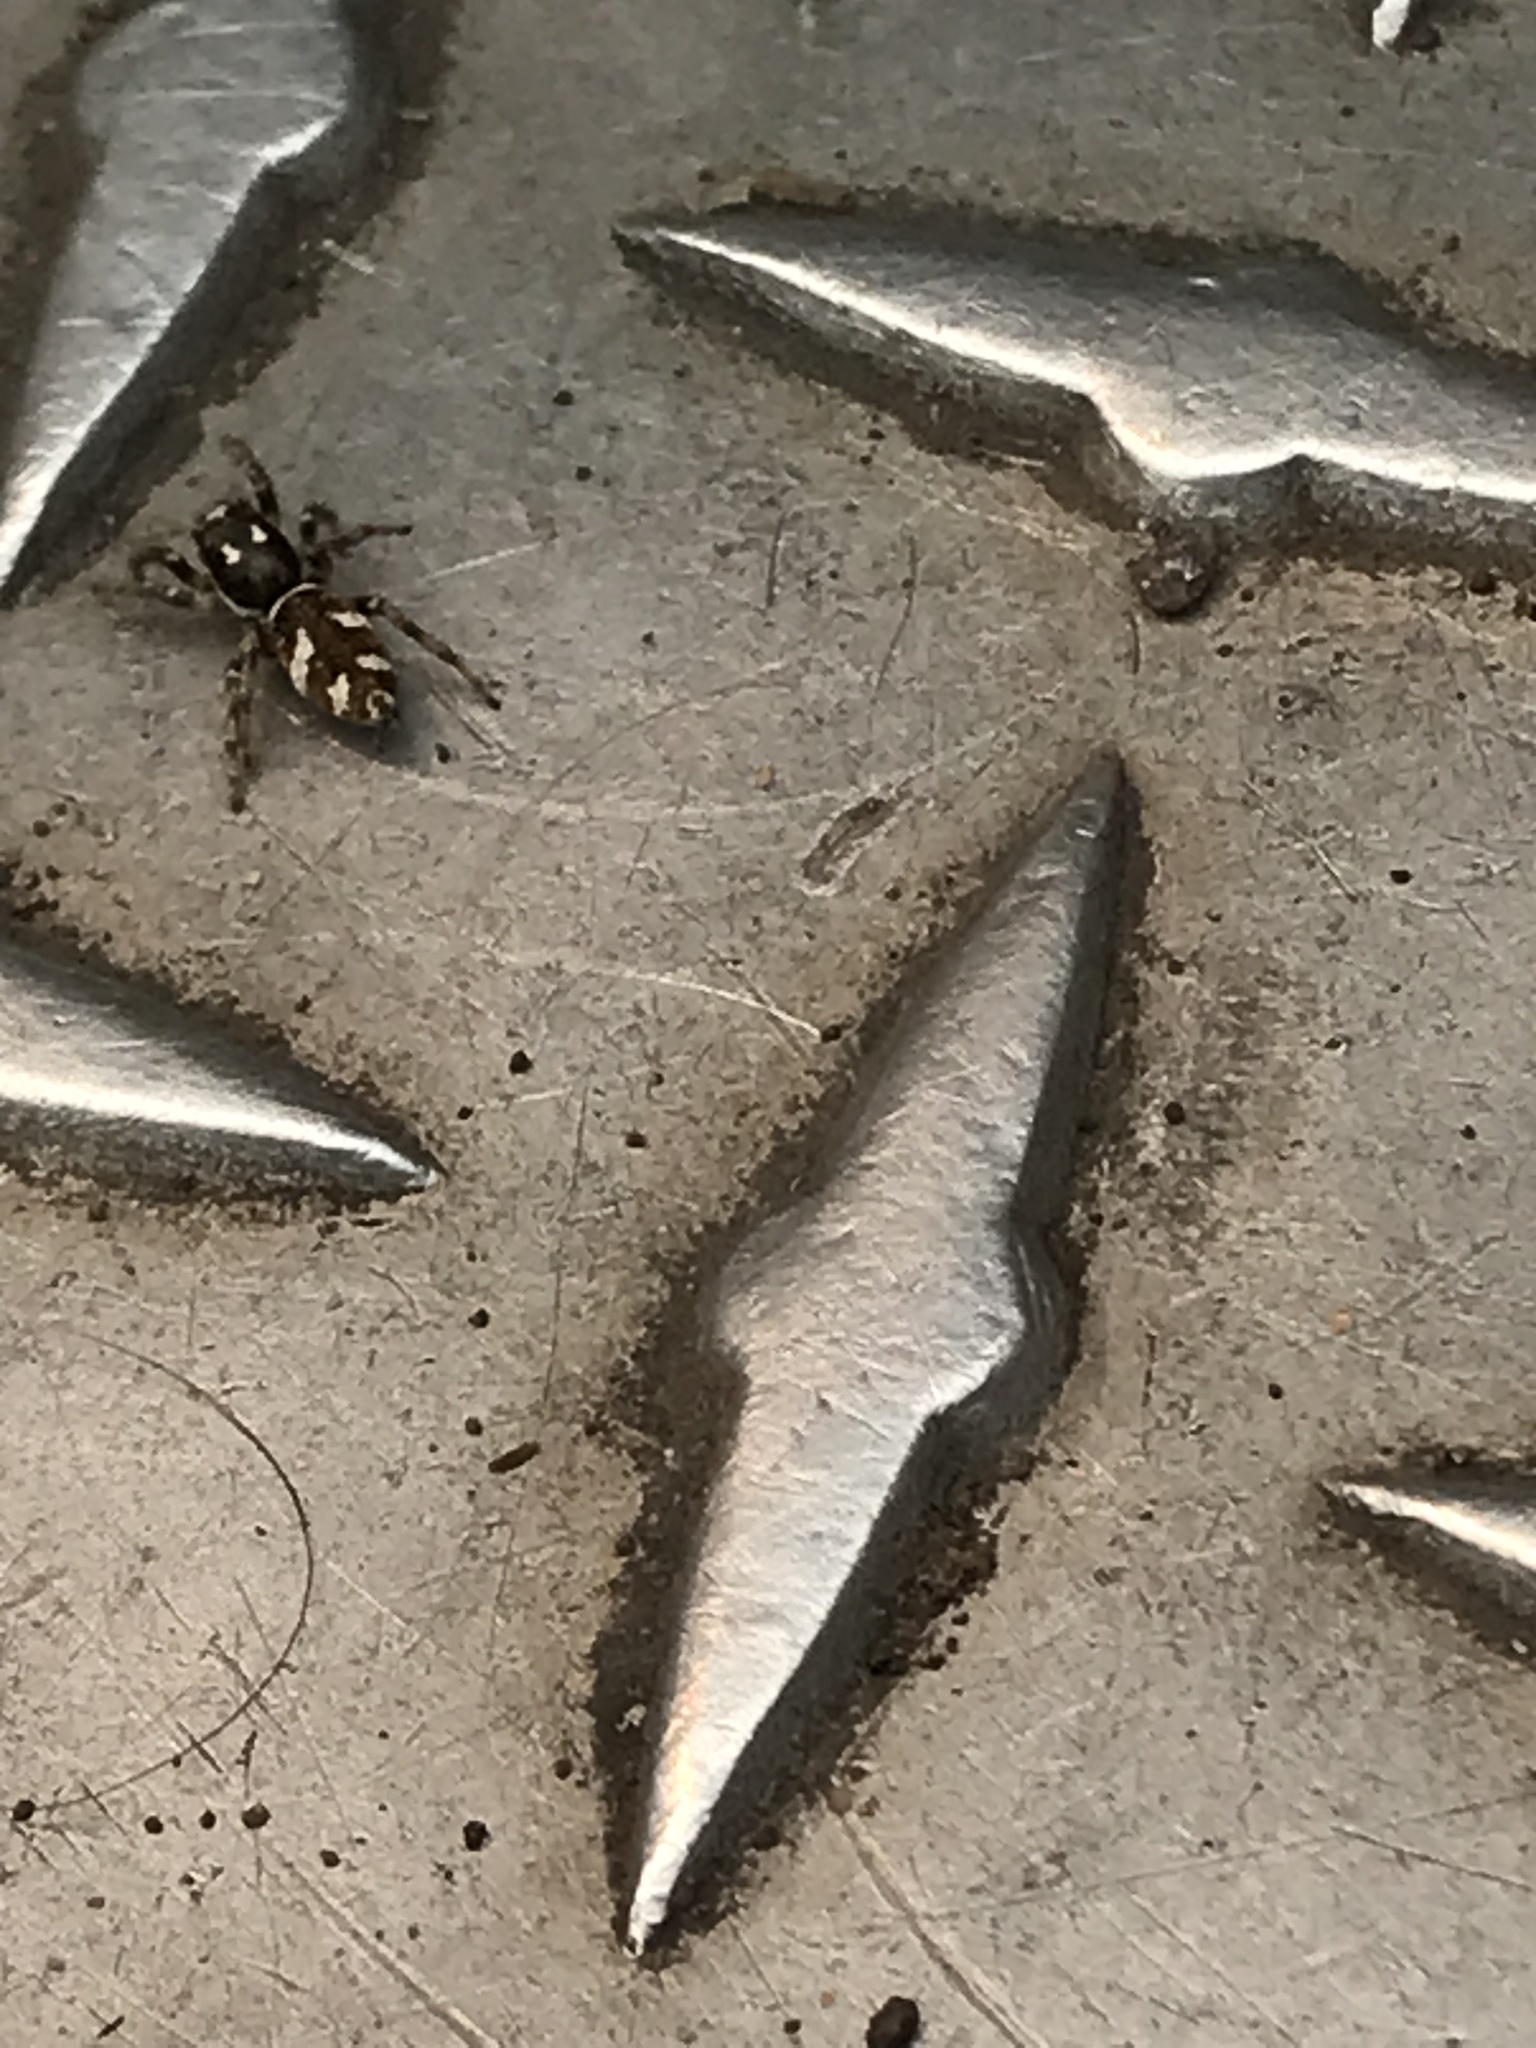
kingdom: Animalia
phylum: Arthropoda
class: Arachnida
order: Araneae
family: Salticidae
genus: Salticus
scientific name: Salticus scenicus
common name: Zebra jumper
